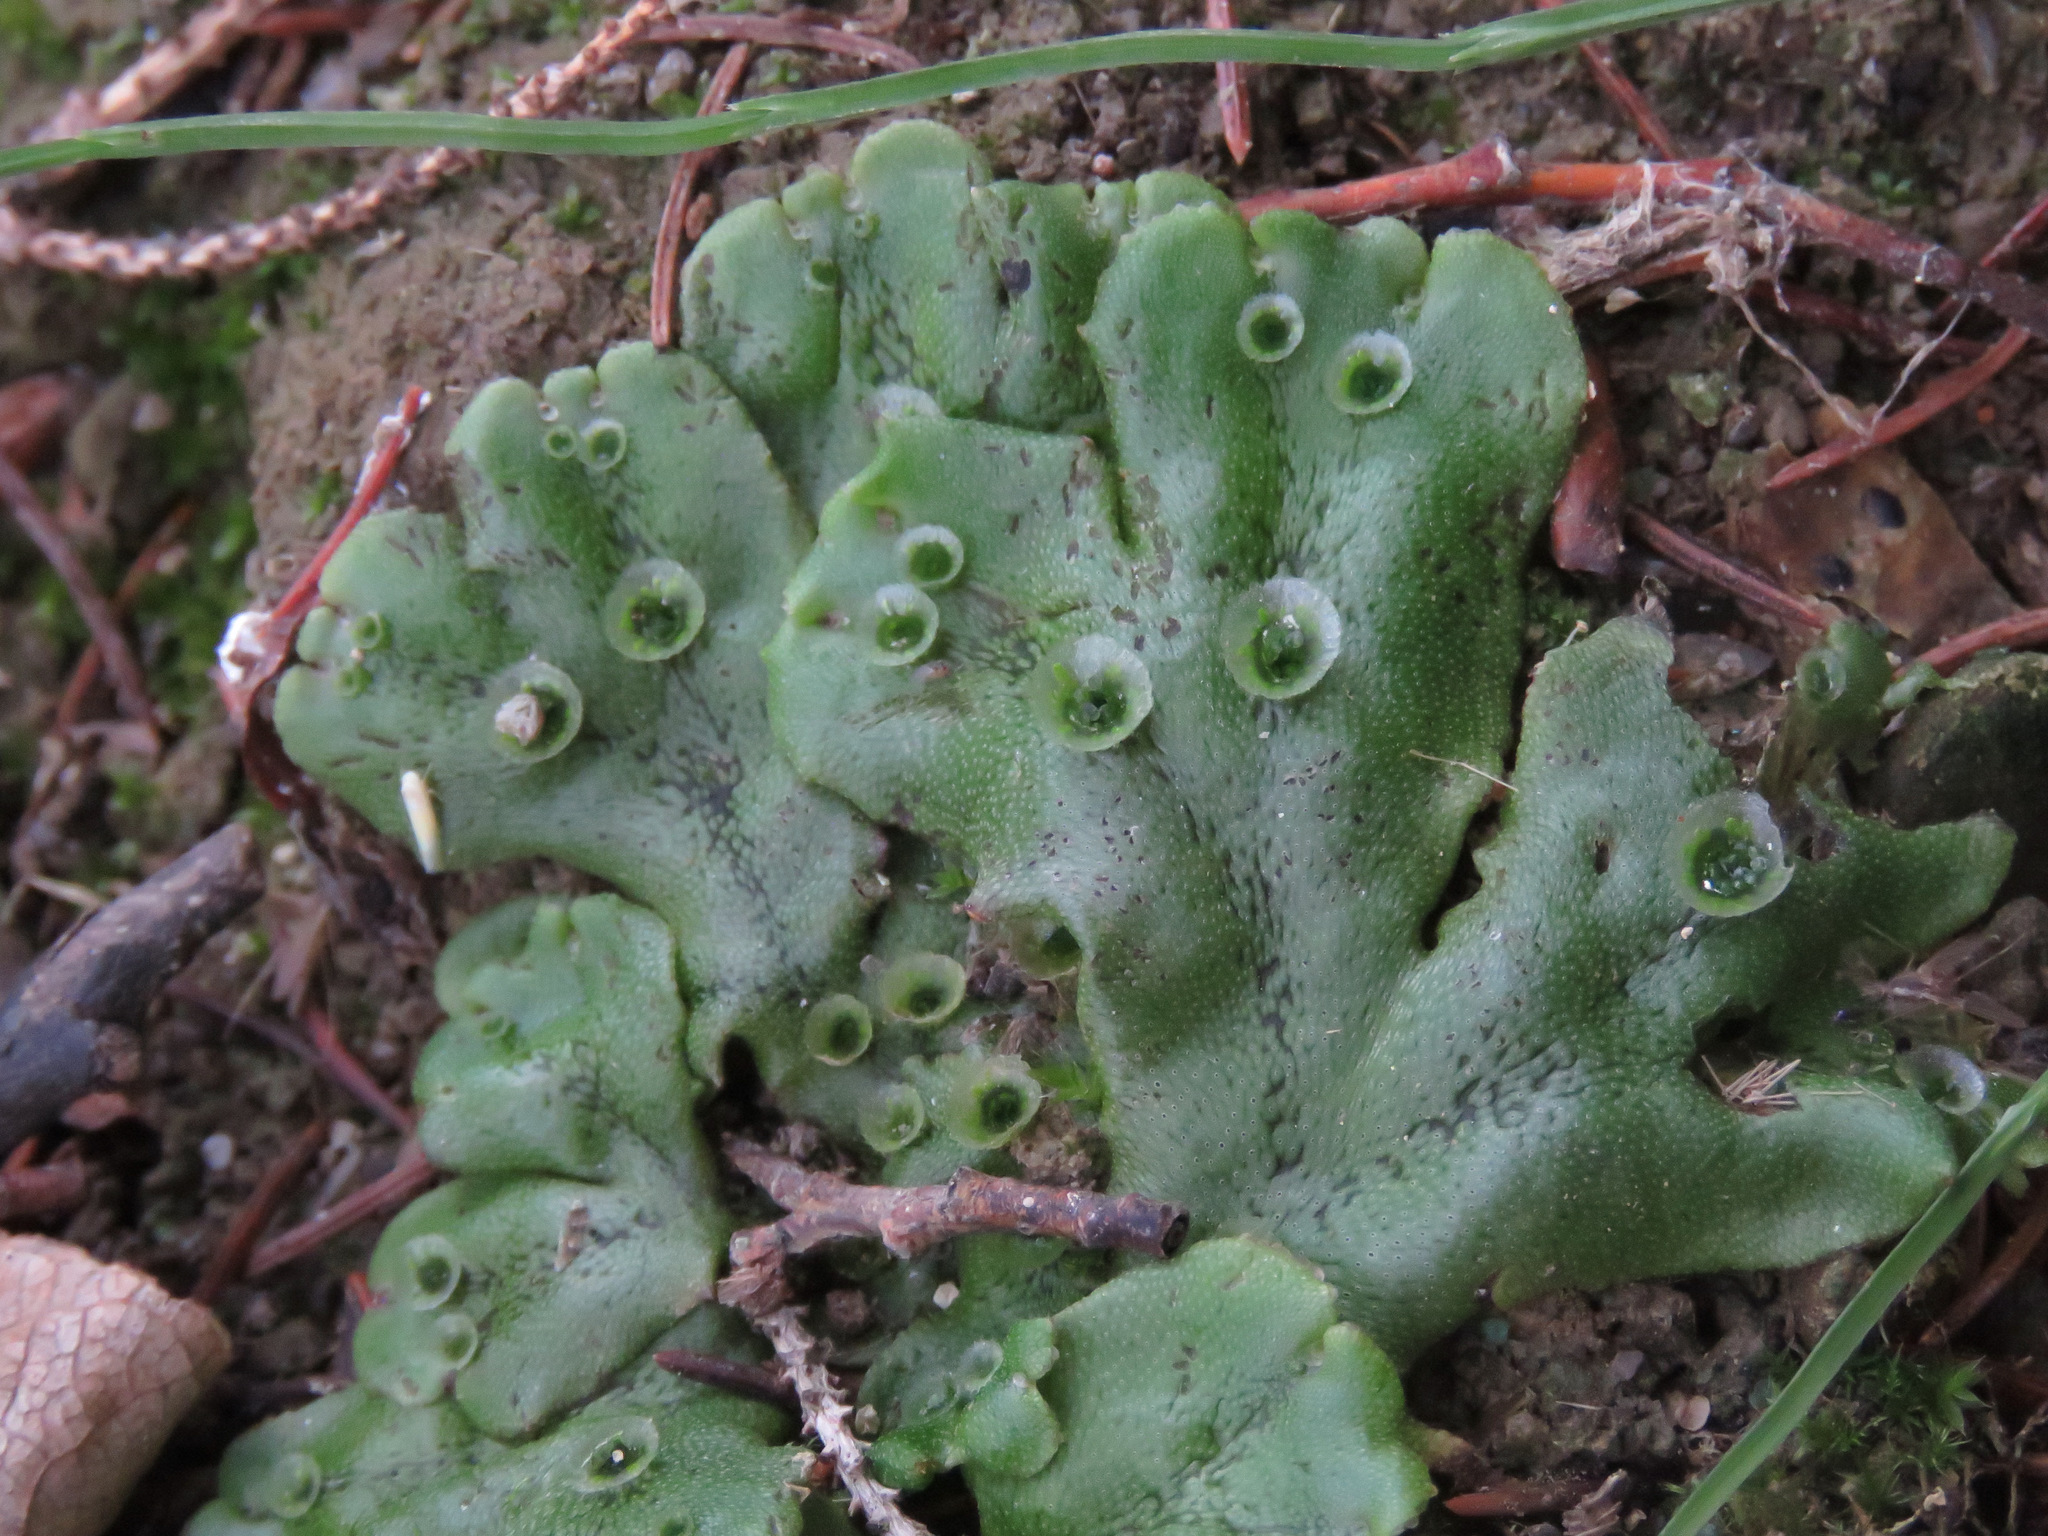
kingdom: Plantae
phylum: Marchantiophyta
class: Marchantiopsida
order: Marchantiales
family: Marchantiaceae
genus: Marchantia
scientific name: Marchantia polymorpha
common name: Common liverwort
